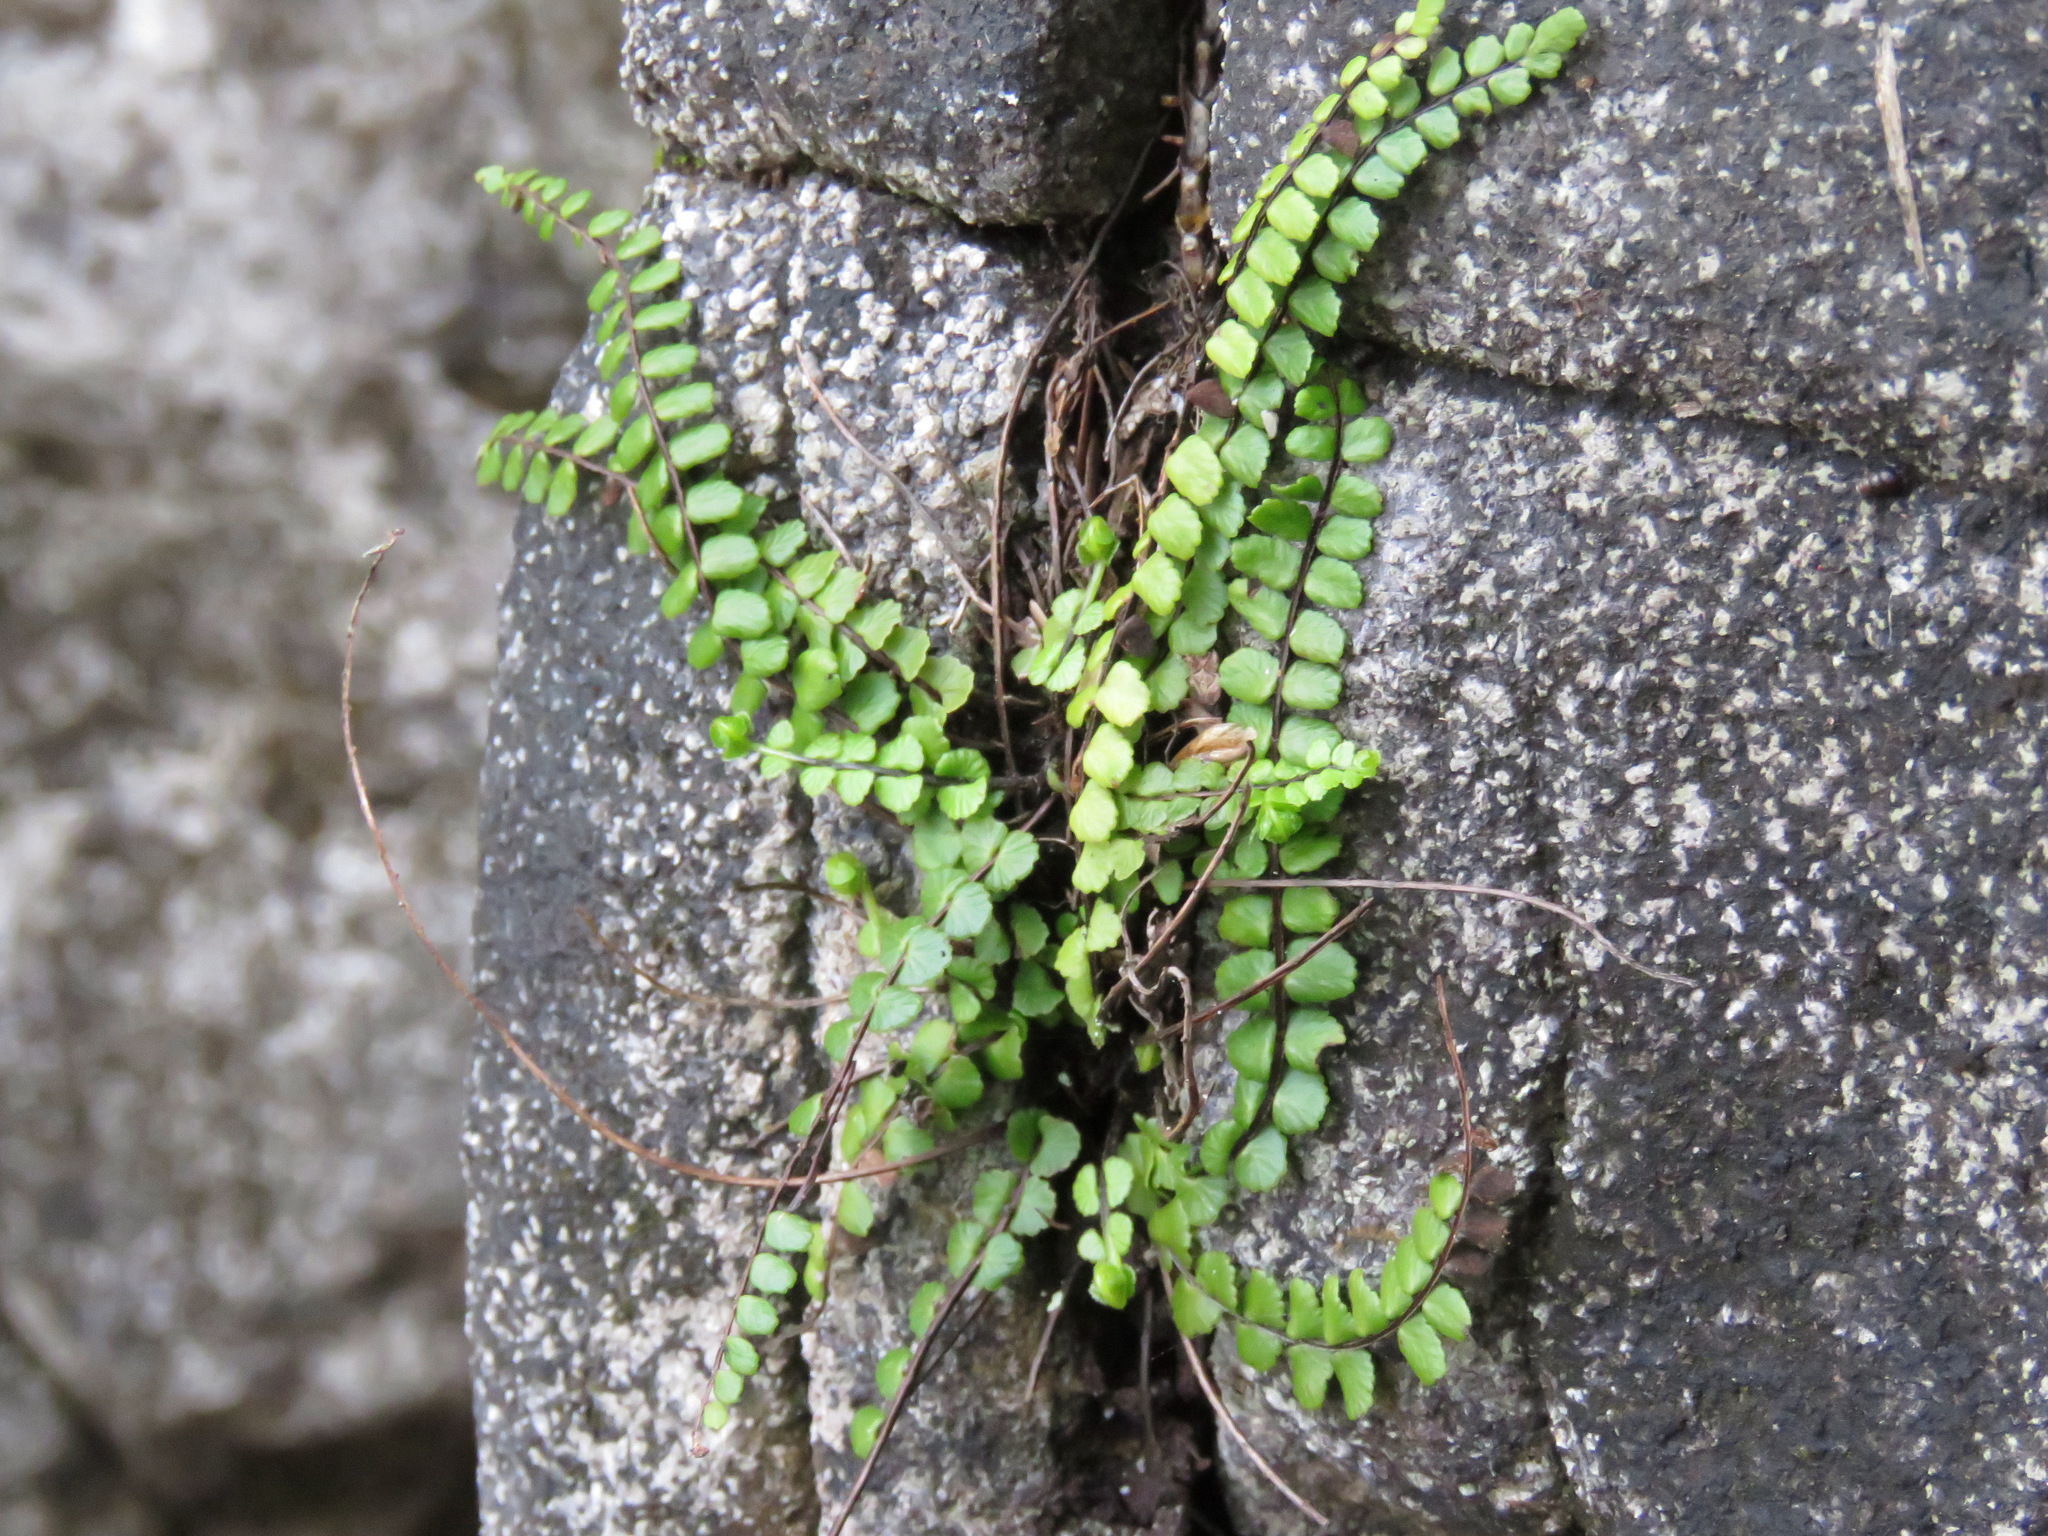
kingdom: Plantae
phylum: Tracheophyta
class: Polypodiopsida
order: Polypodiales
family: Aspleniaceae
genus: Asplenium
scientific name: Asplenium trichomanes
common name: Maidenhair spleenwort
